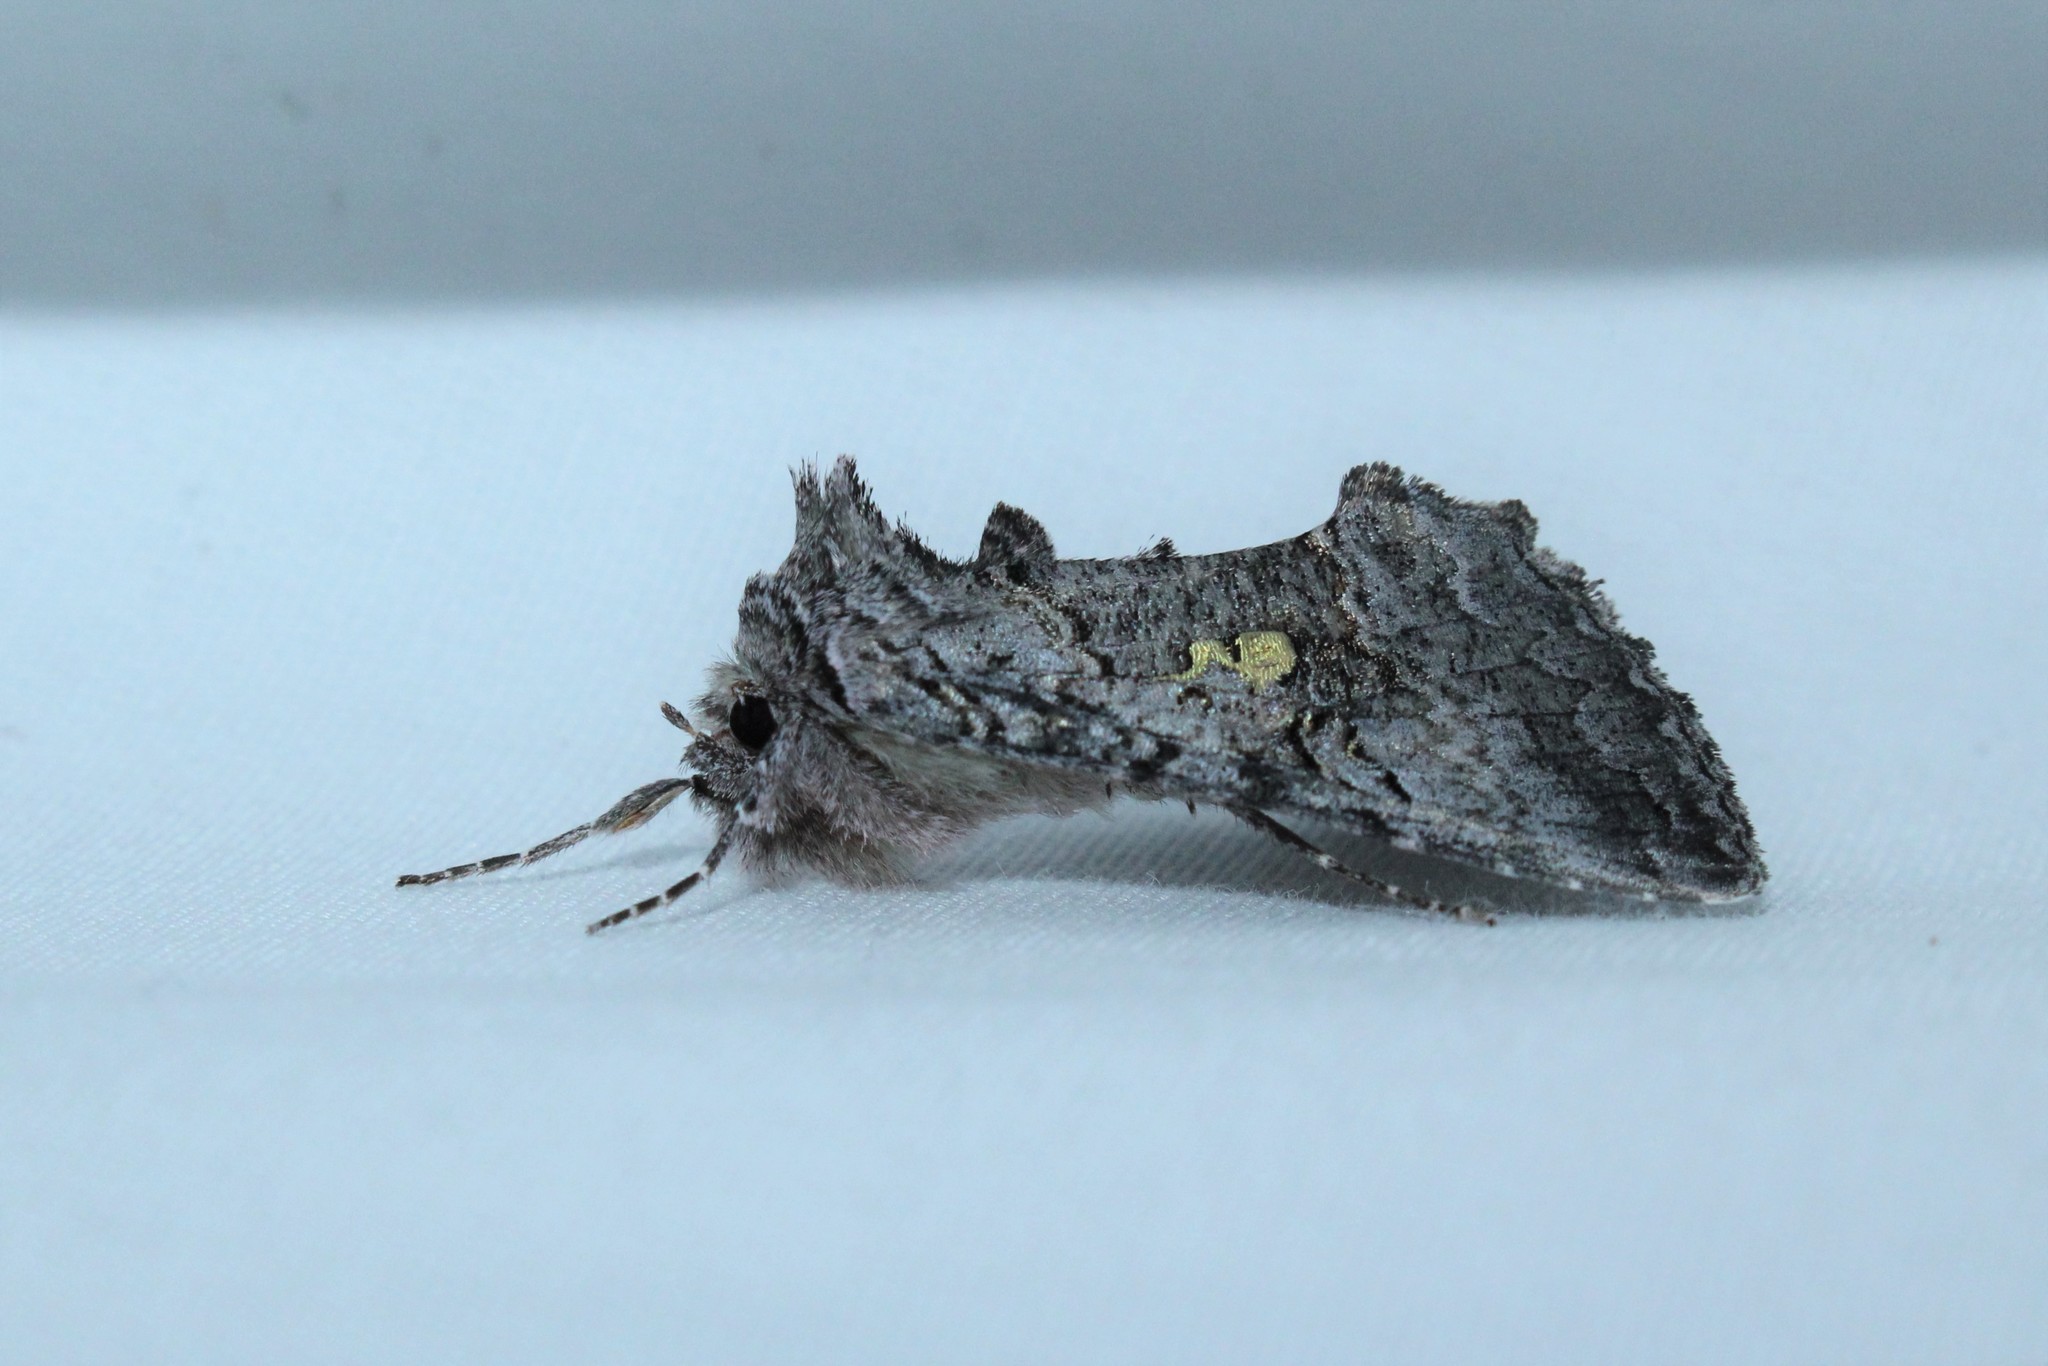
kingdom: Animalia
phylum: Arthropoda
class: Insecta
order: Lepidoptera
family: Noctuidae
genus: Syngrapha
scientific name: Syngrapha viridisigma
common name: Spruce false looper moth
